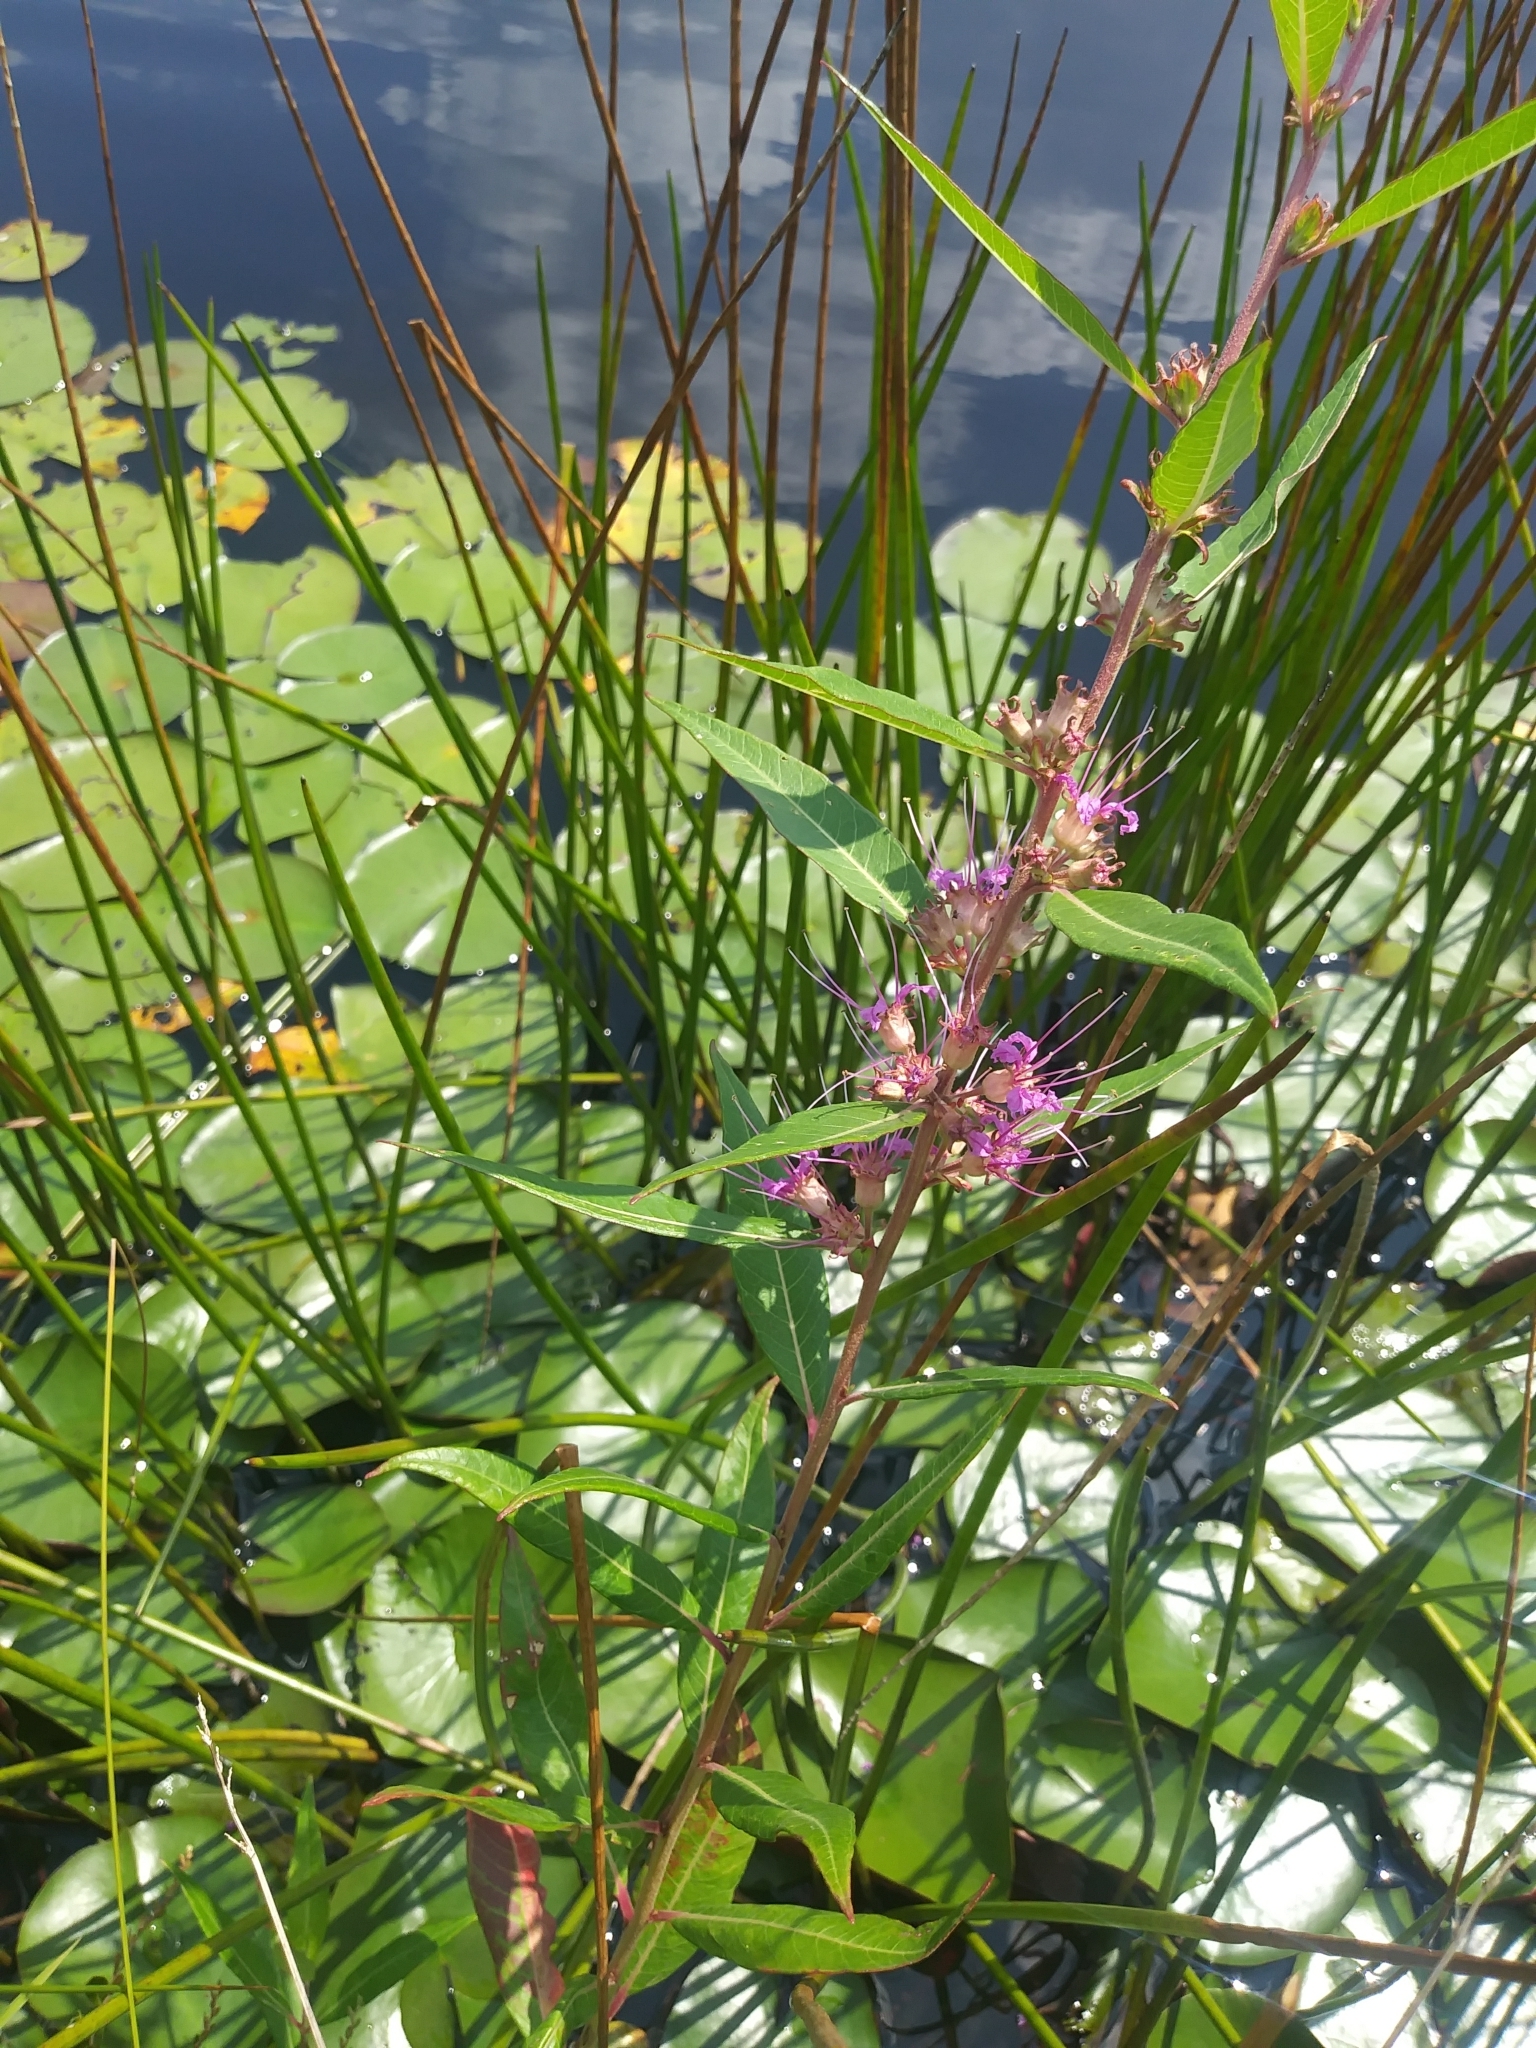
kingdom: Plantae
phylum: Tracheophyta
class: Magnoliopsida
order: Myrtales
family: Lythraceae
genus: Decodon
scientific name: Decodon verticillatus
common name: Hairy swamp loosestrife
